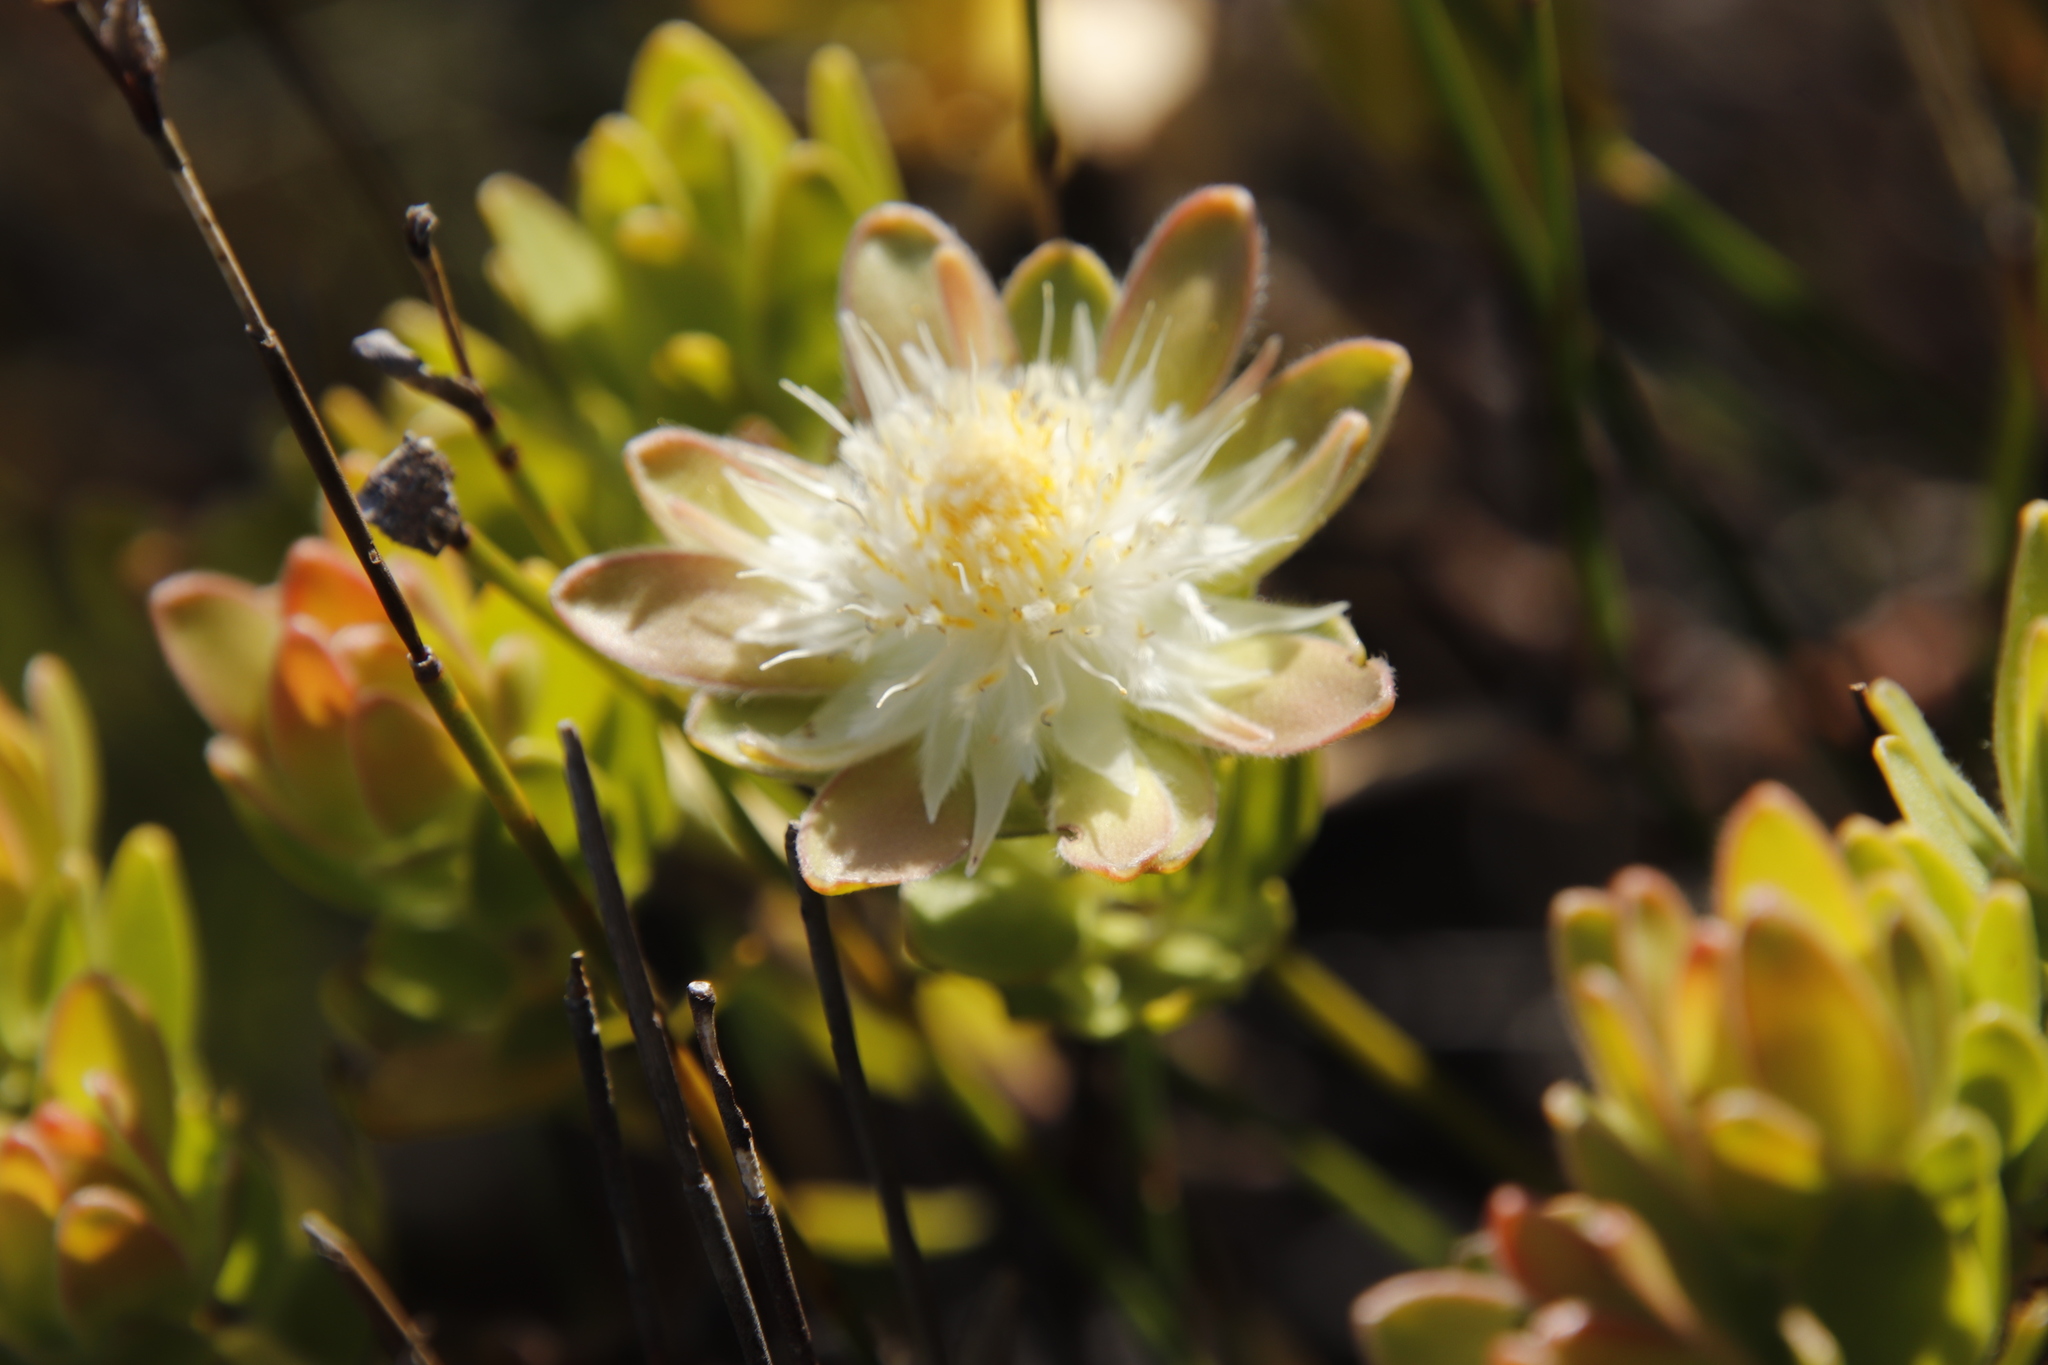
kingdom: Plantae
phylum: Tracheophyta
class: Magnoliopsida
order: Proteales
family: Proteaceae
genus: Diastella
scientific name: Diastella thymelaeoides
